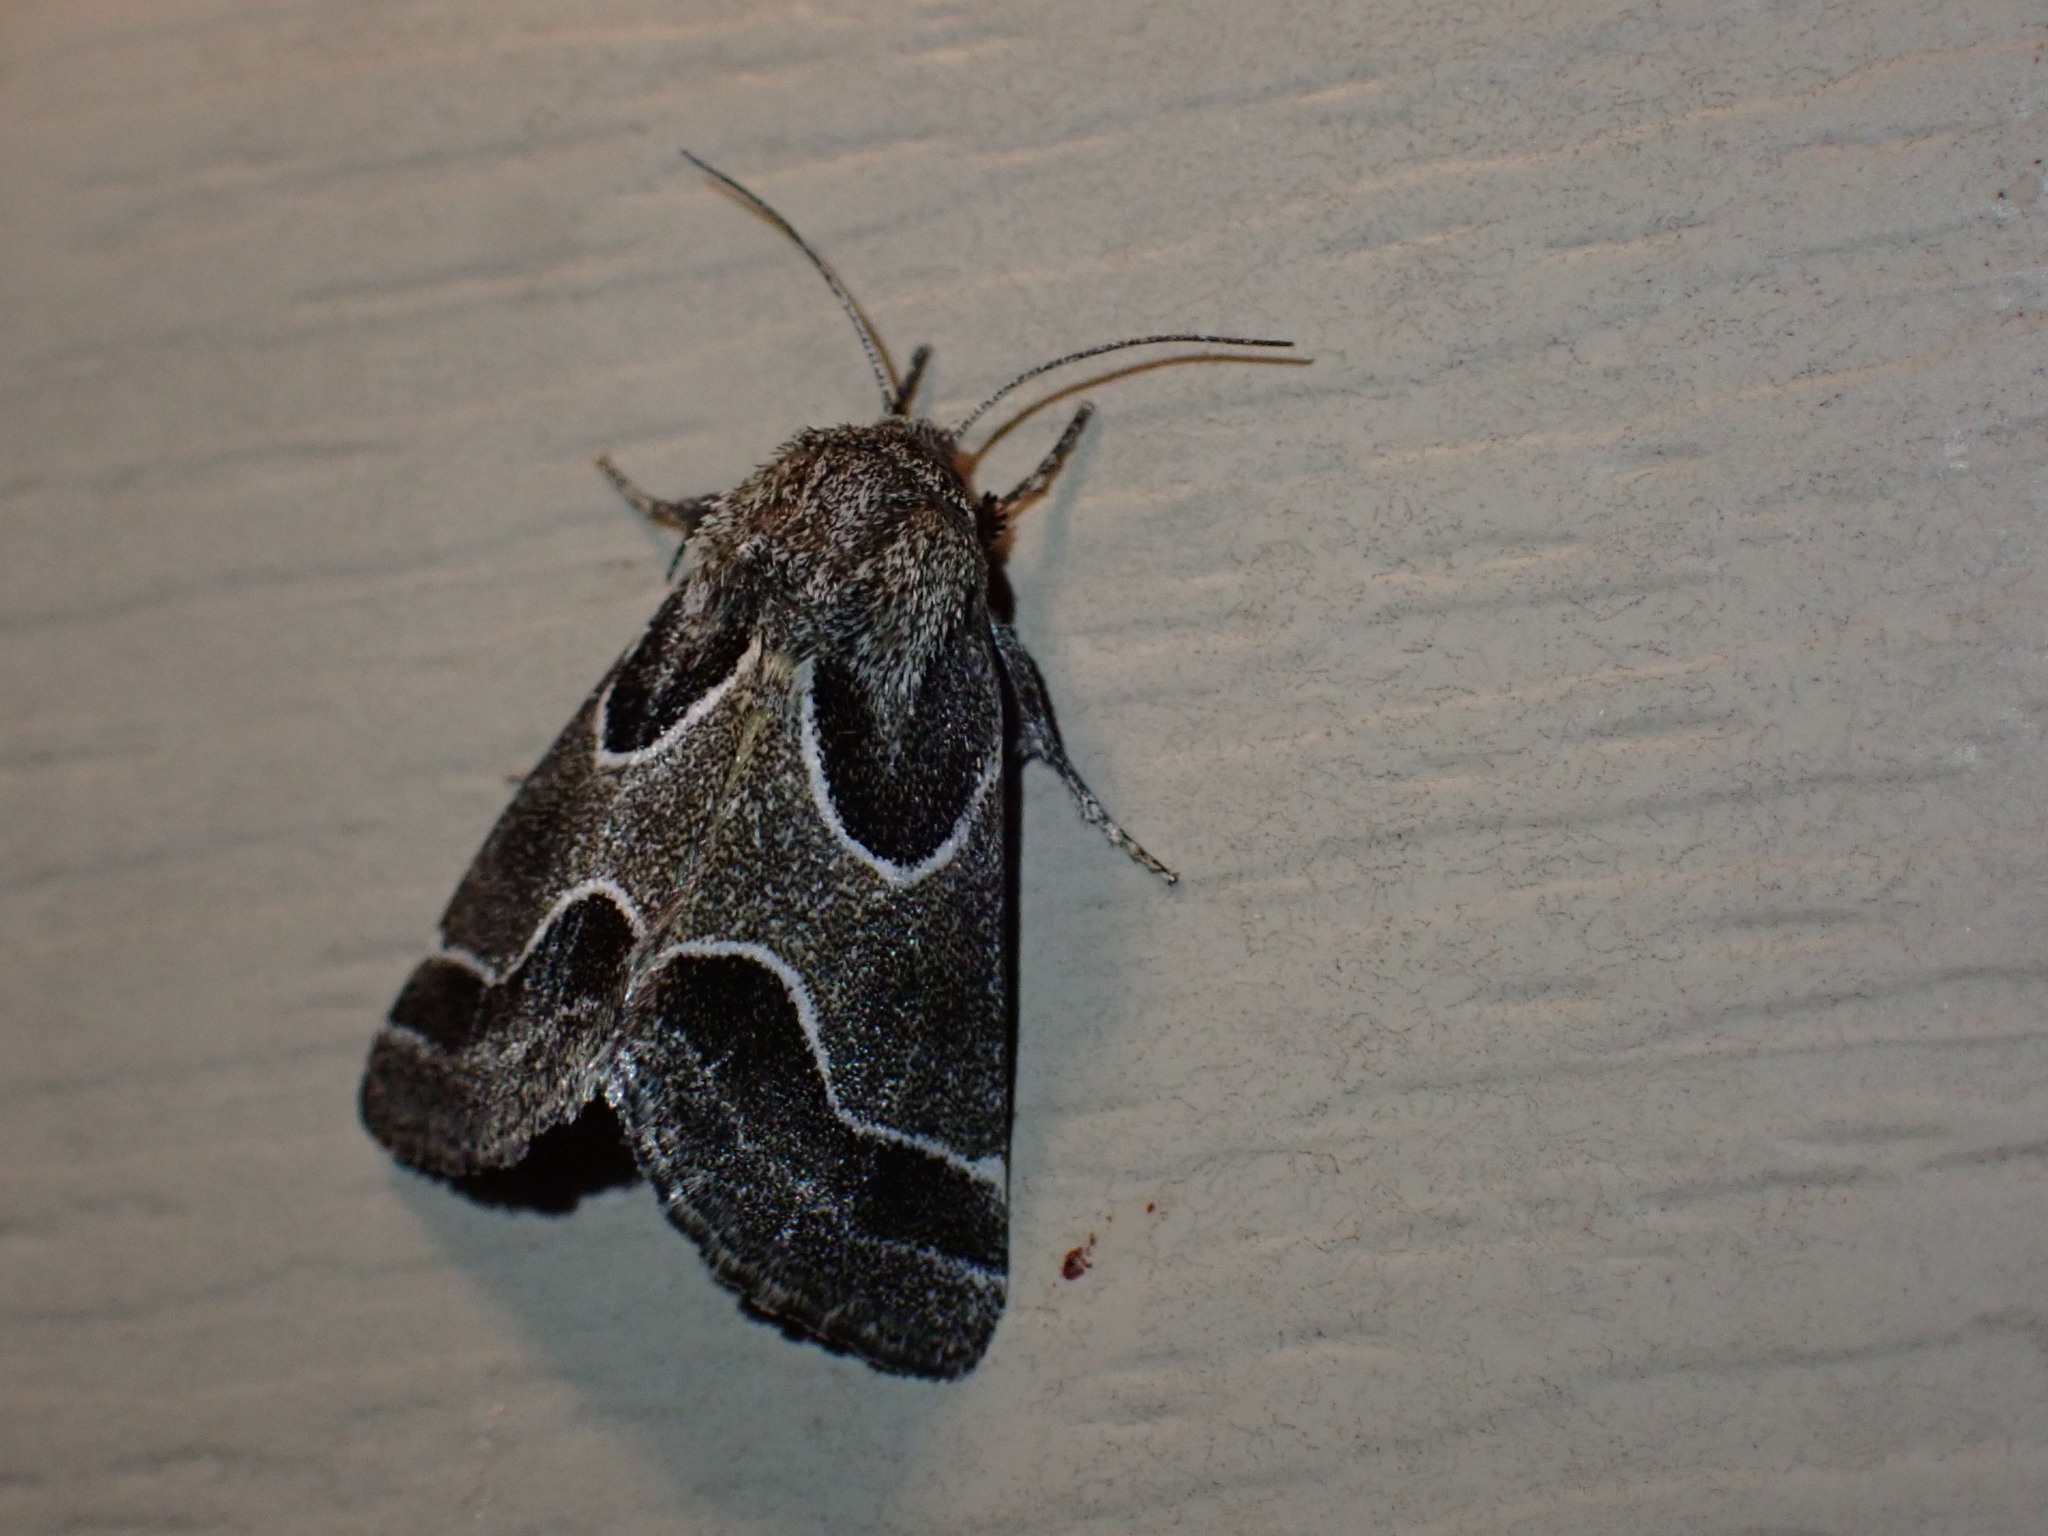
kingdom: Animalia
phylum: Arthropoda
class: Insecta
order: Lepidoptera
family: Noctuidae
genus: Schinia
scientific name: Schinia rivulosa
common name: Scarce meal-moth
